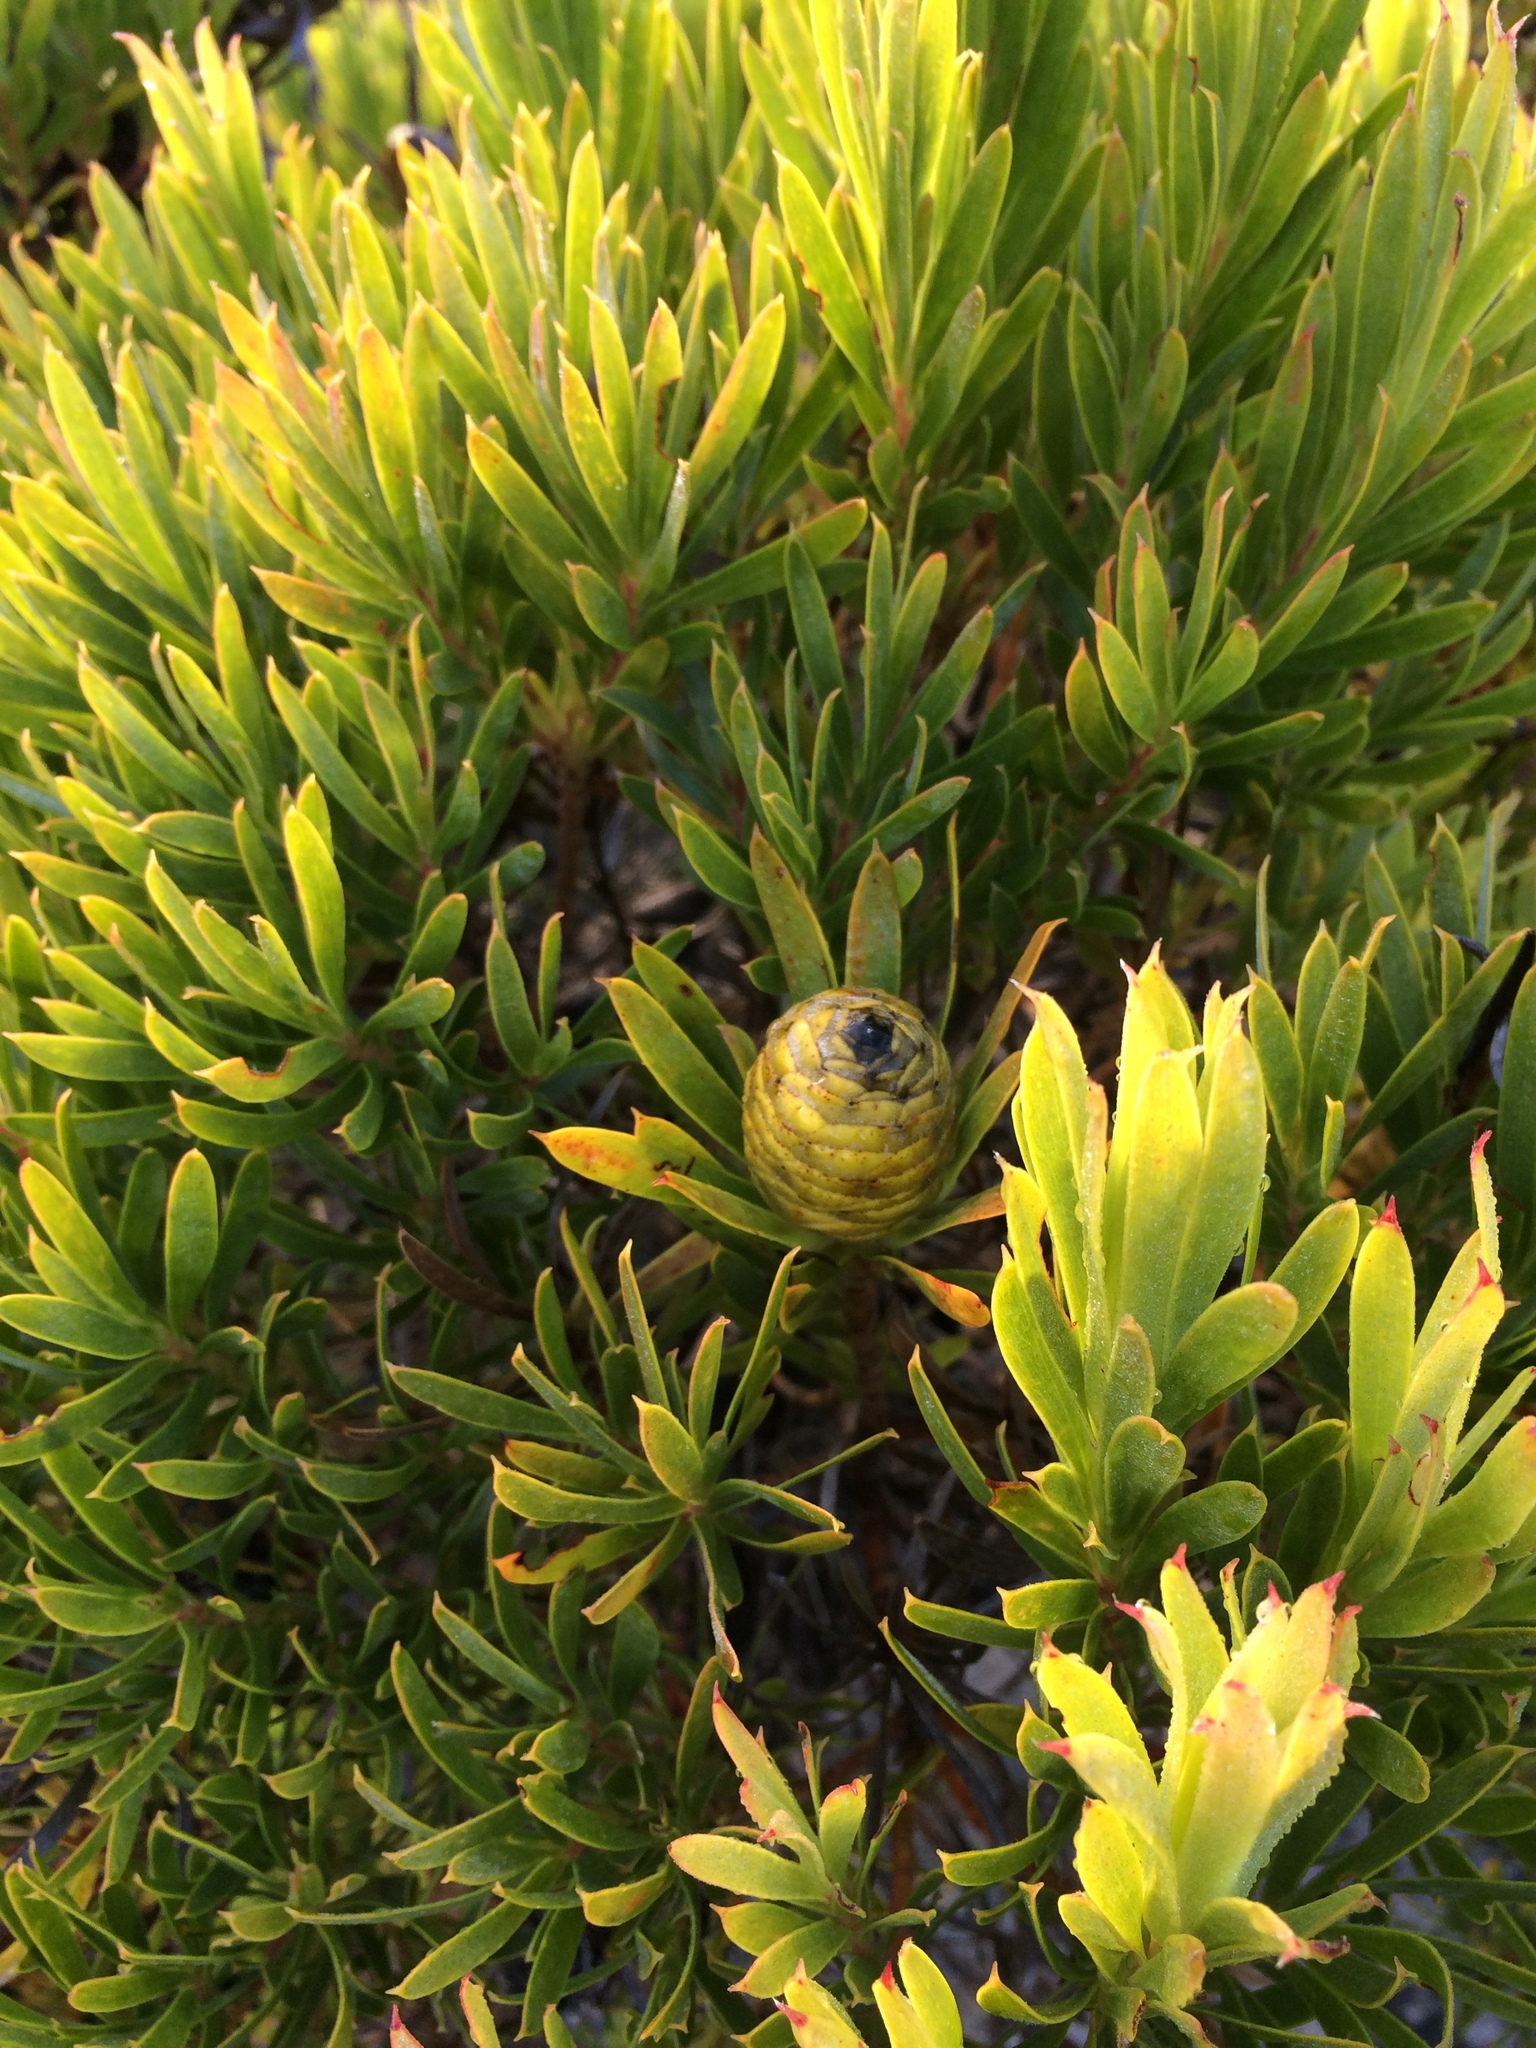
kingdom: Plantae
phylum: Tracheophyta
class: Magnoliopsida
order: Proteales
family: Proteaceae
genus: Leucadendron
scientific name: Leucadendron xanthoconus
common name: Sickle-leaf conebush
